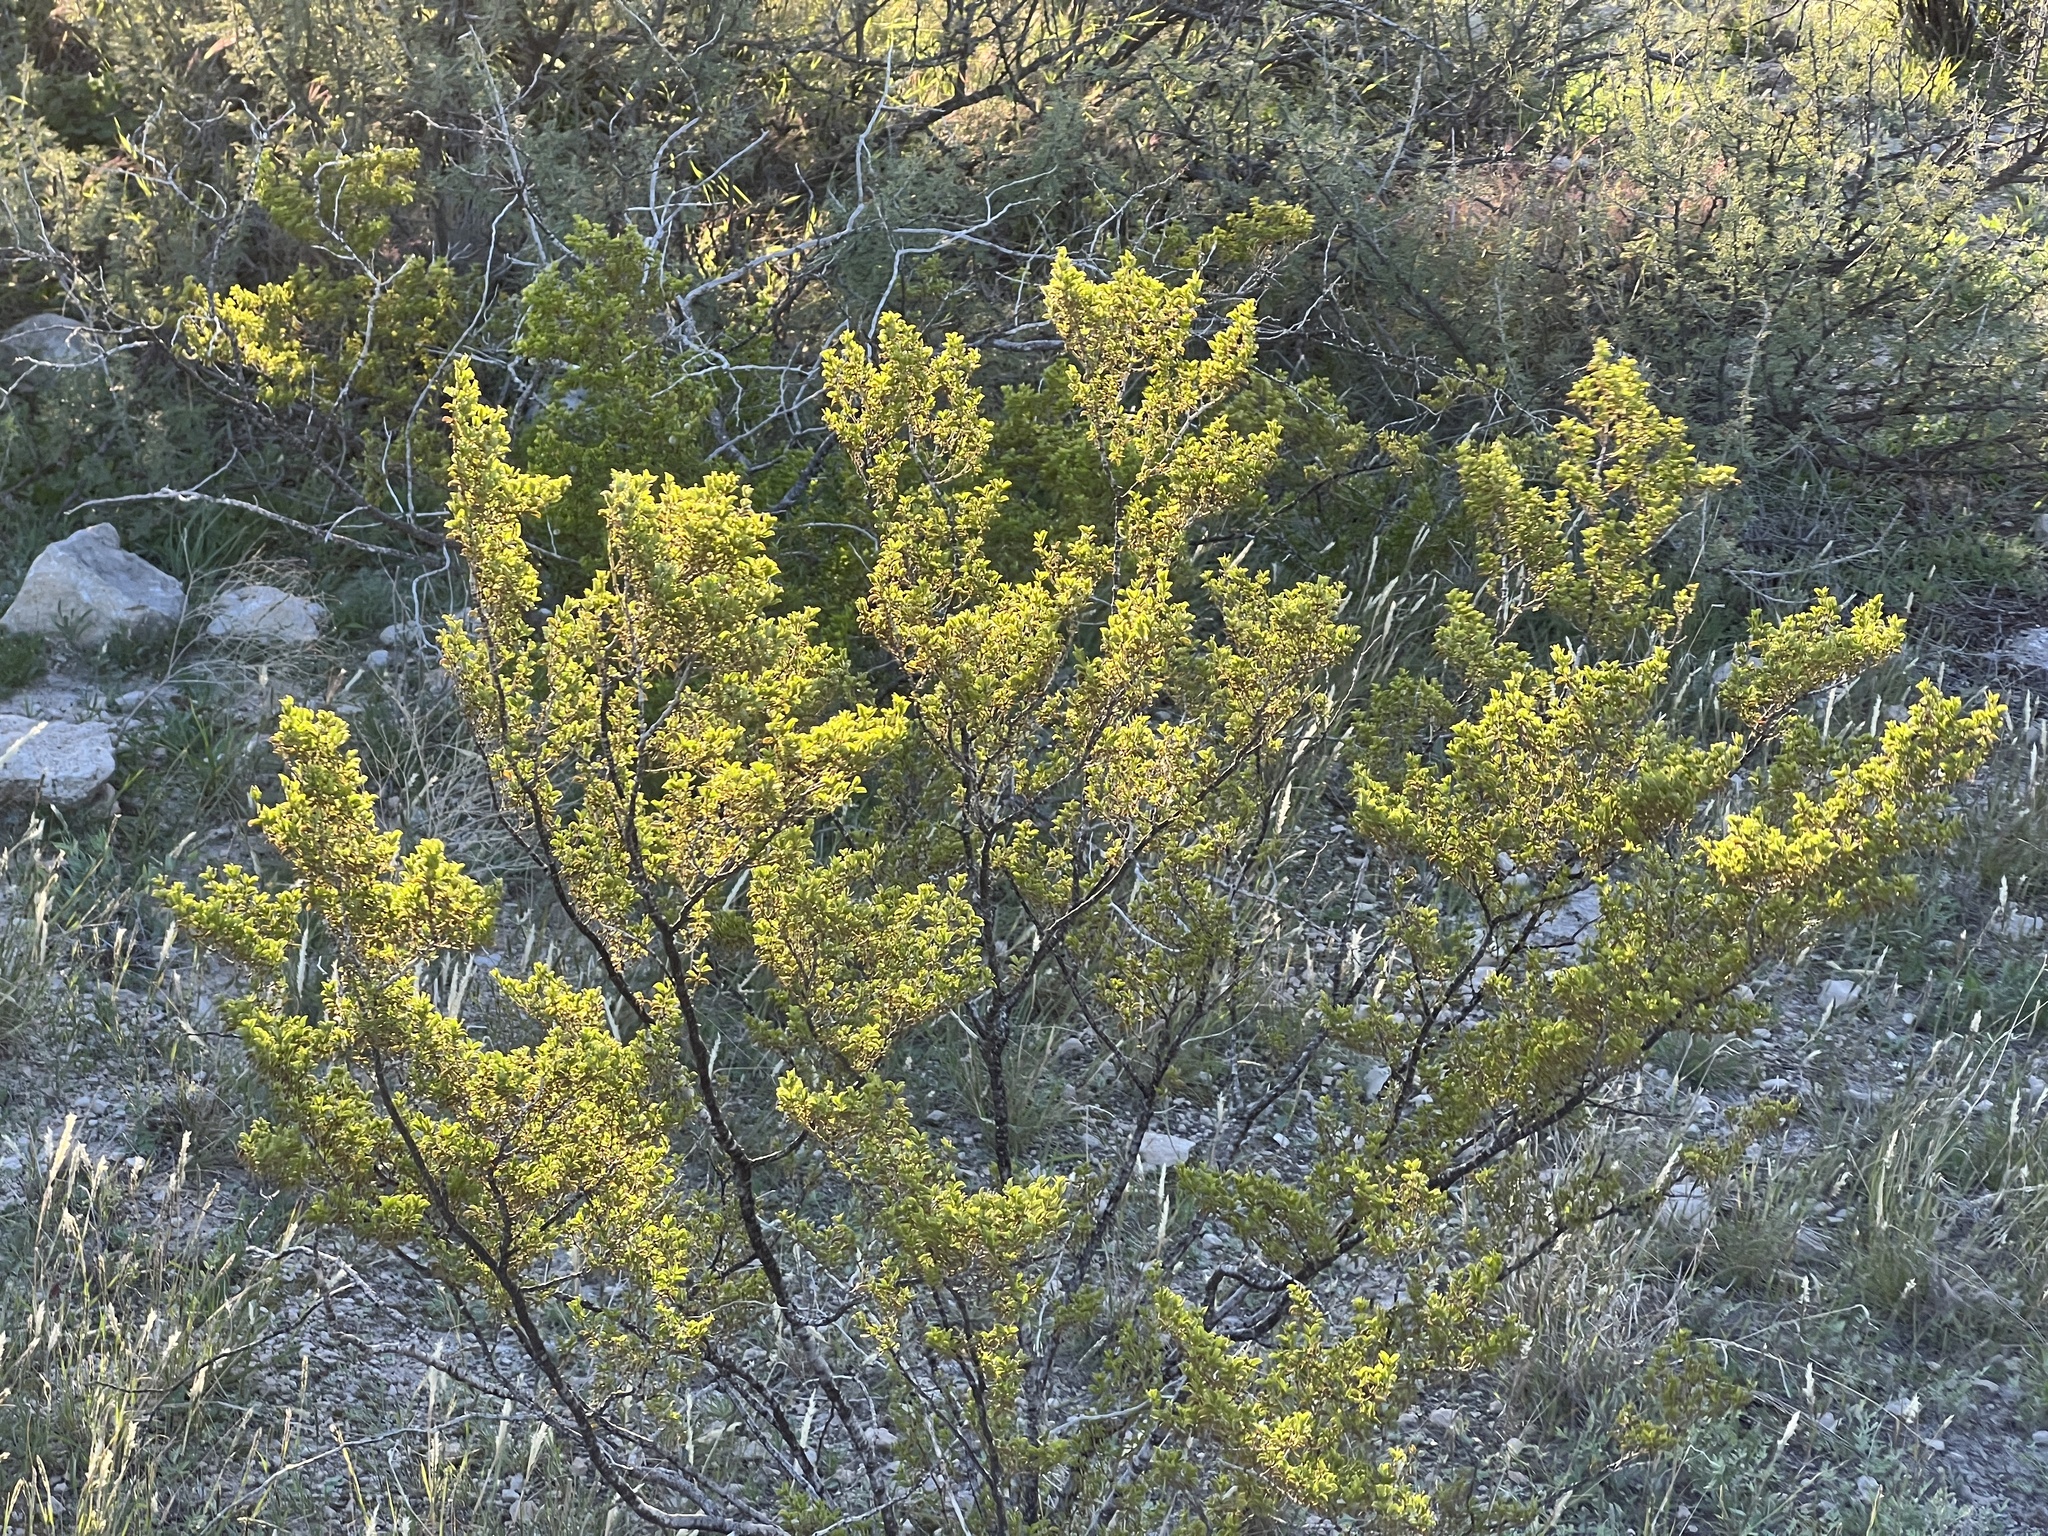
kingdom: Plantae
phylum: Tracheophyta
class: Magnoliopsida
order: Zygophyllales
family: Zygophyllaceae
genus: Larrea
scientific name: Larrea tridentata
